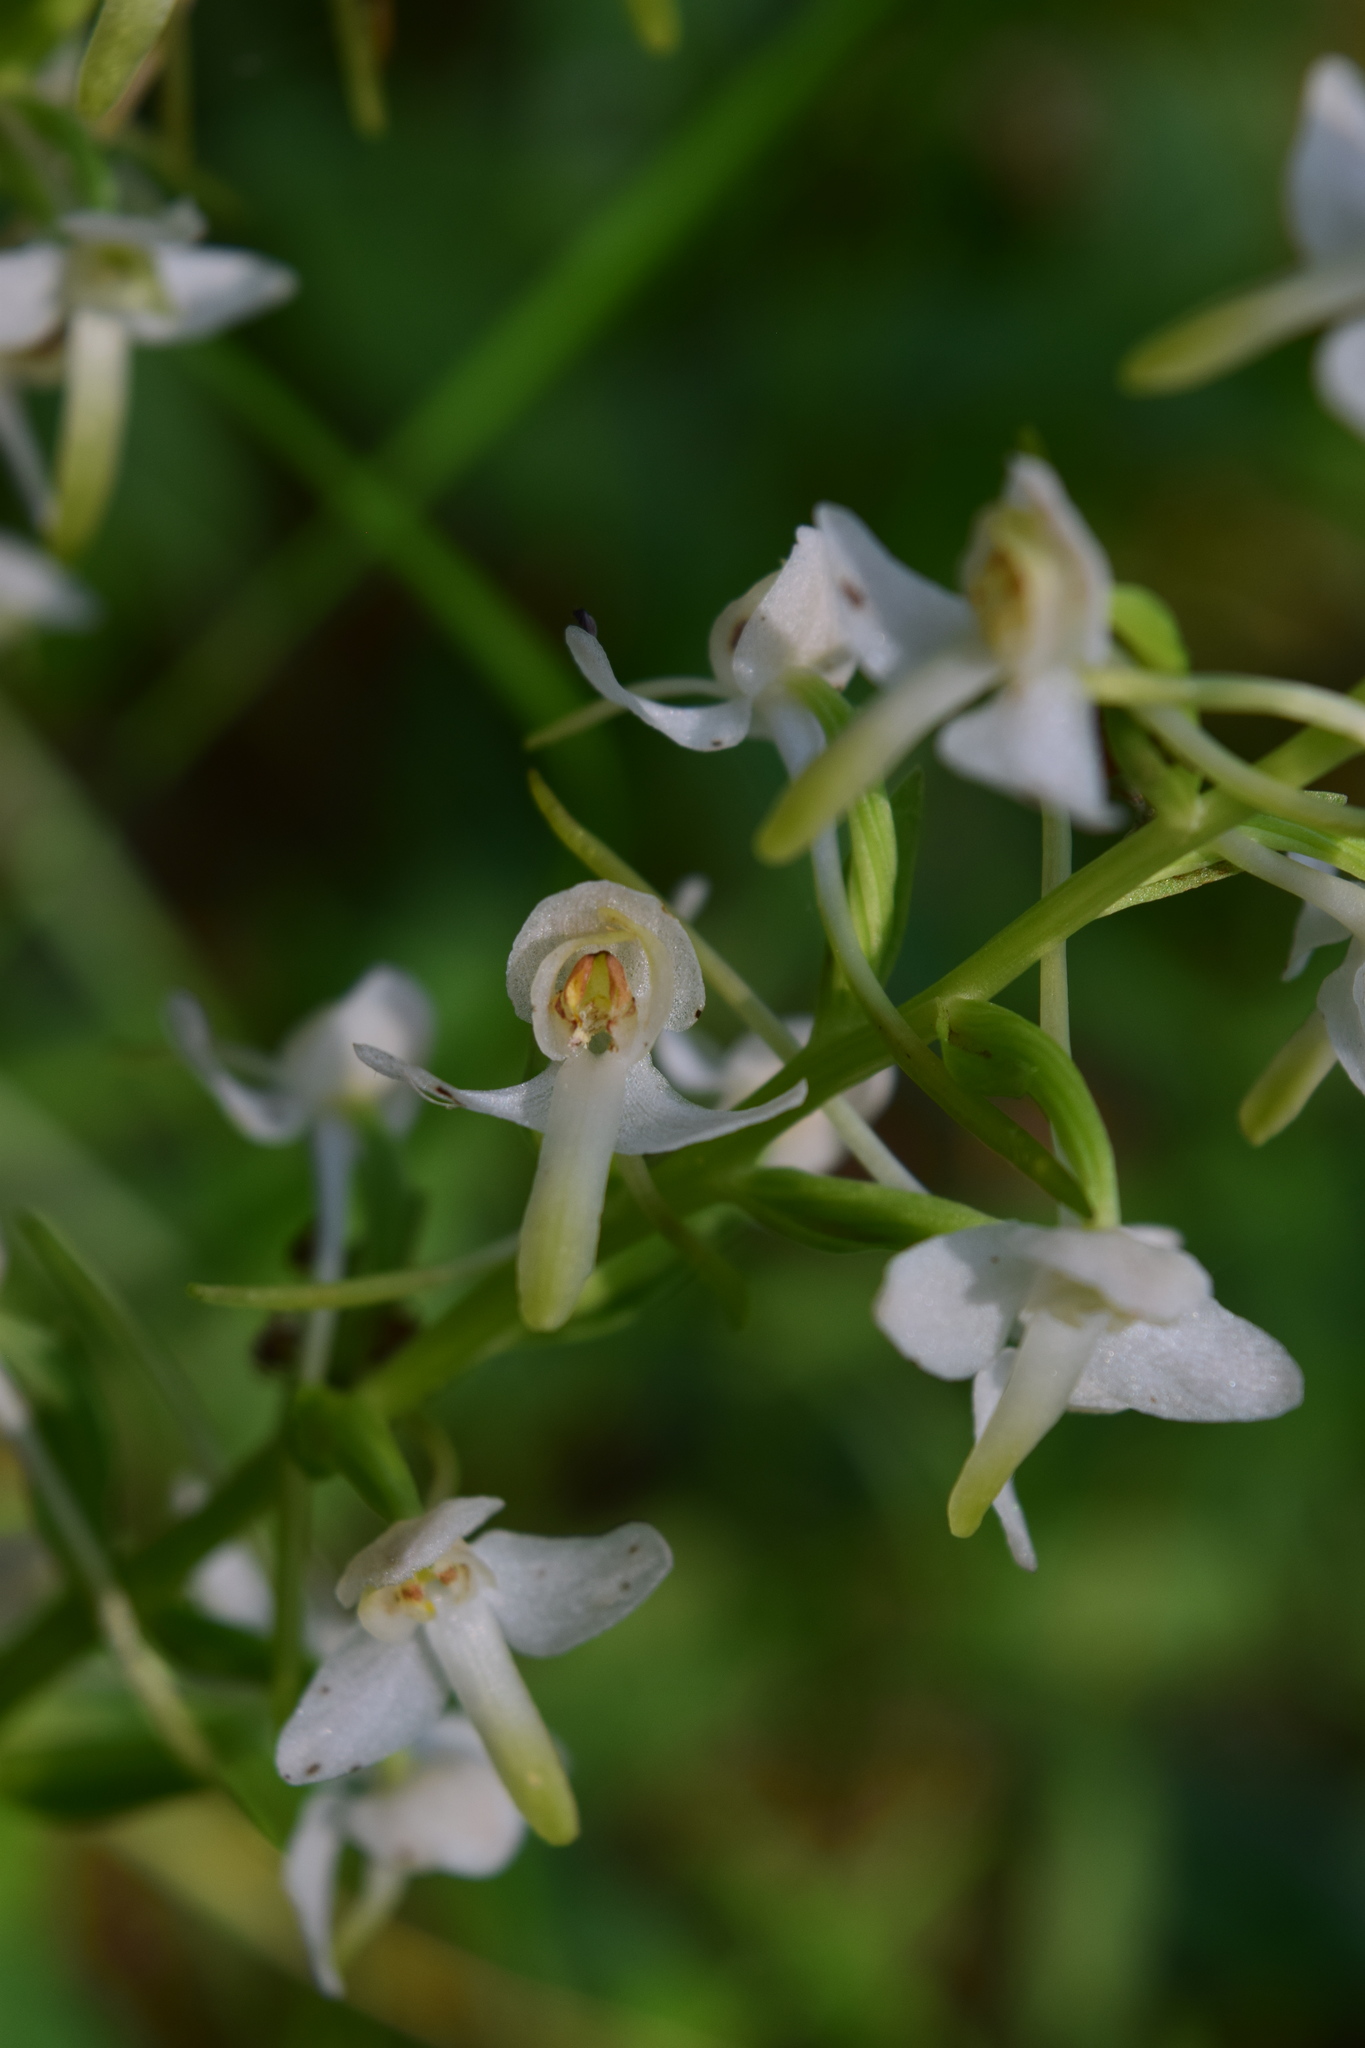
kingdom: Plantae
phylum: Tracheophyta
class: Liliopsida
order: Asparagales
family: Orchidaceae
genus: Platanthera
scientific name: Platanthera bifolia
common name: Lesser butterfly-orchid
